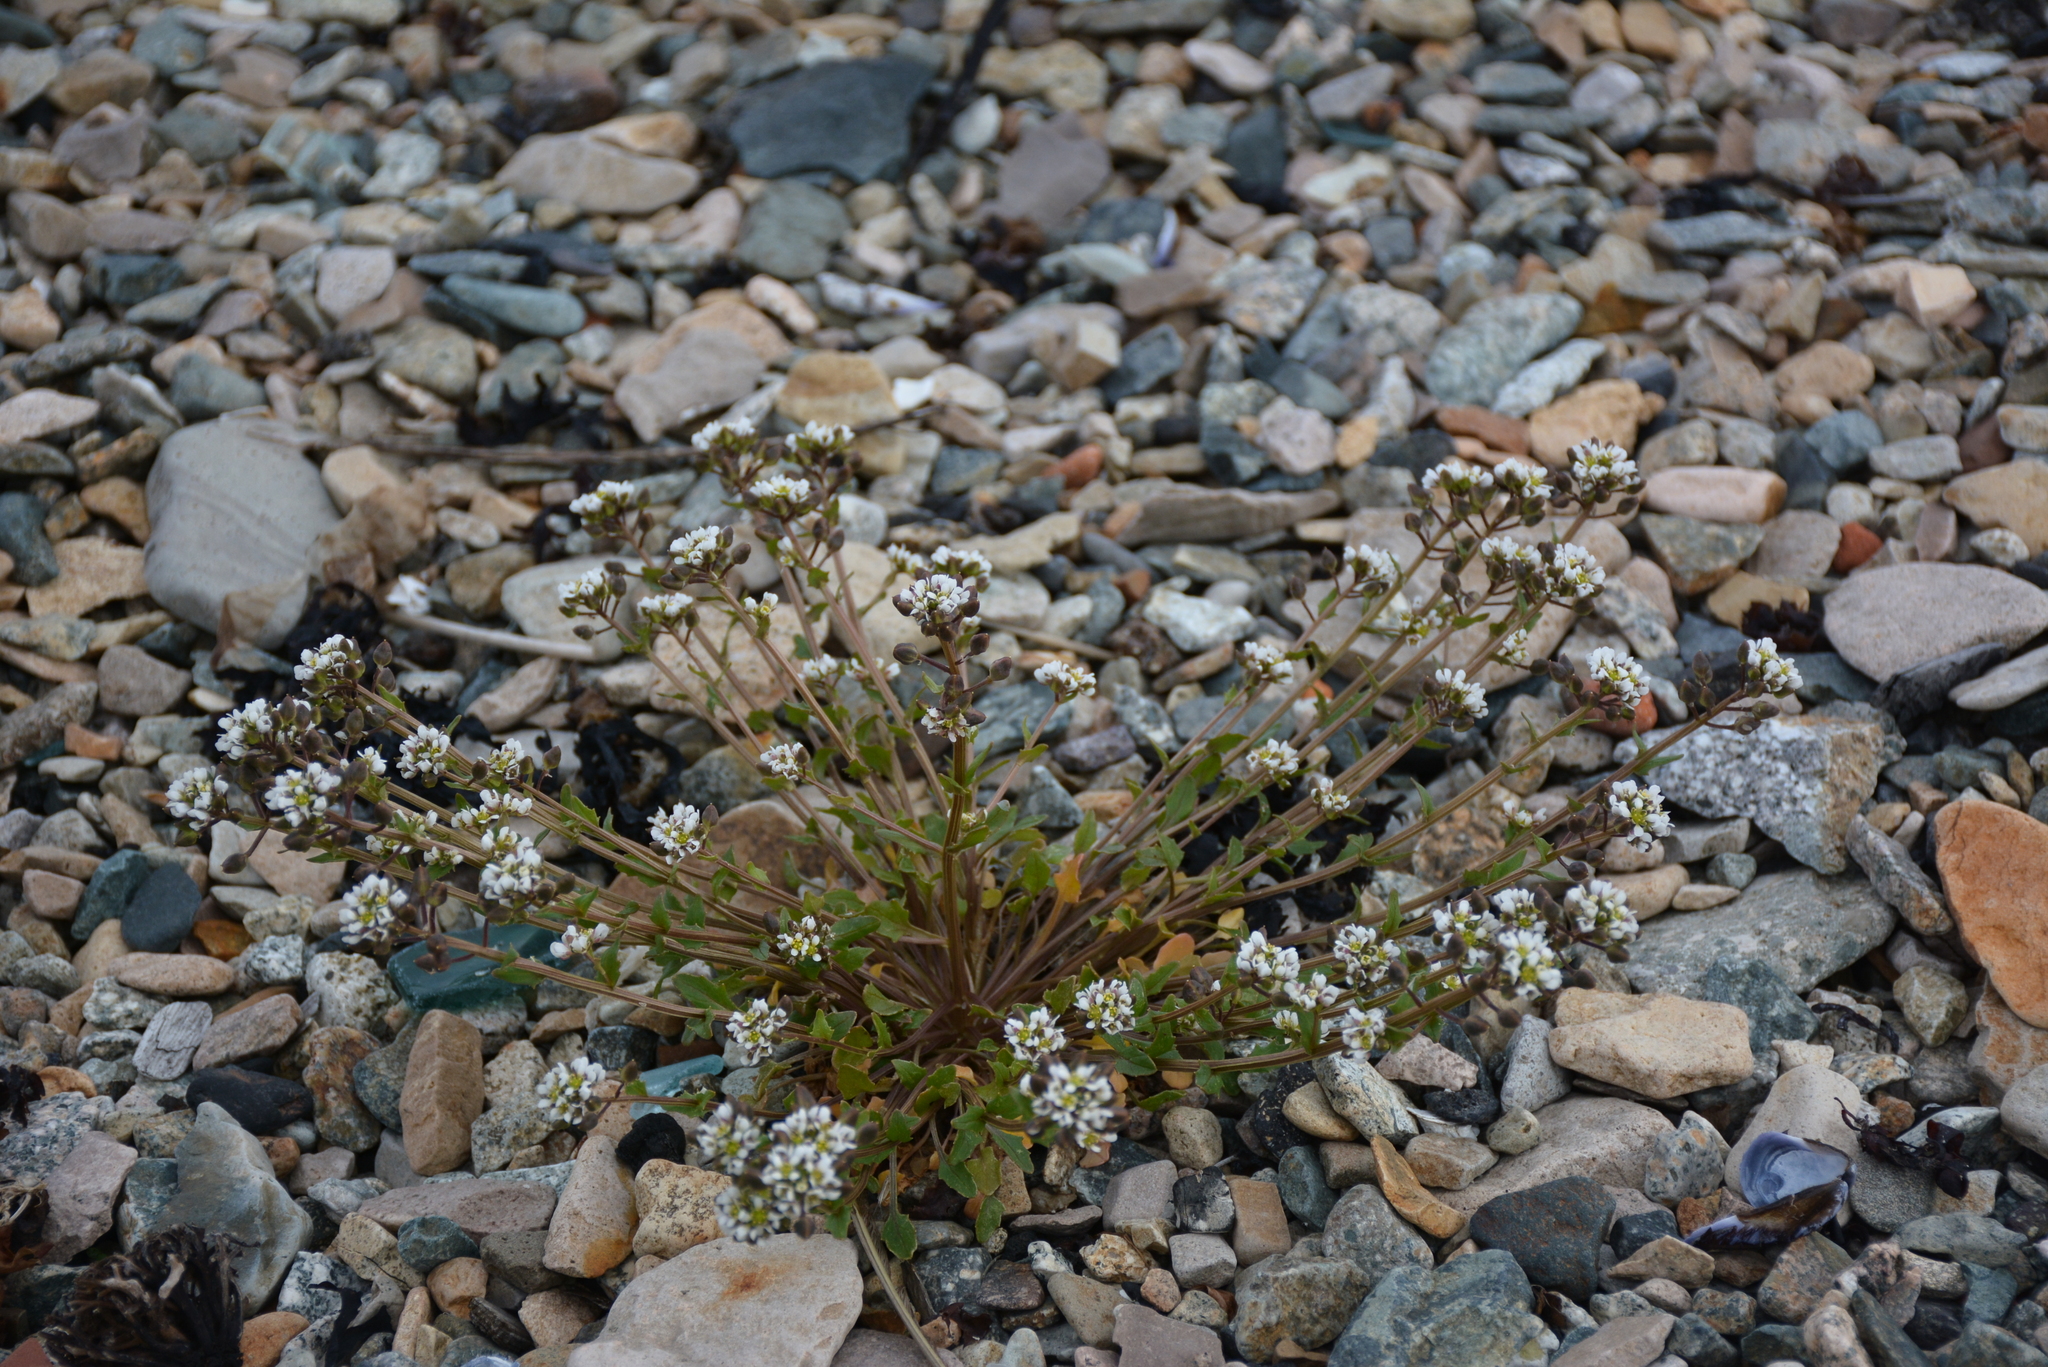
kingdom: Plantae
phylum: Tracheophyta
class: Magnoliopsida
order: Brassicales
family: Brassicaceae
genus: Cochlearia
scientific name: Cochlearia groenlandica
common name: Danish scurvygrass
